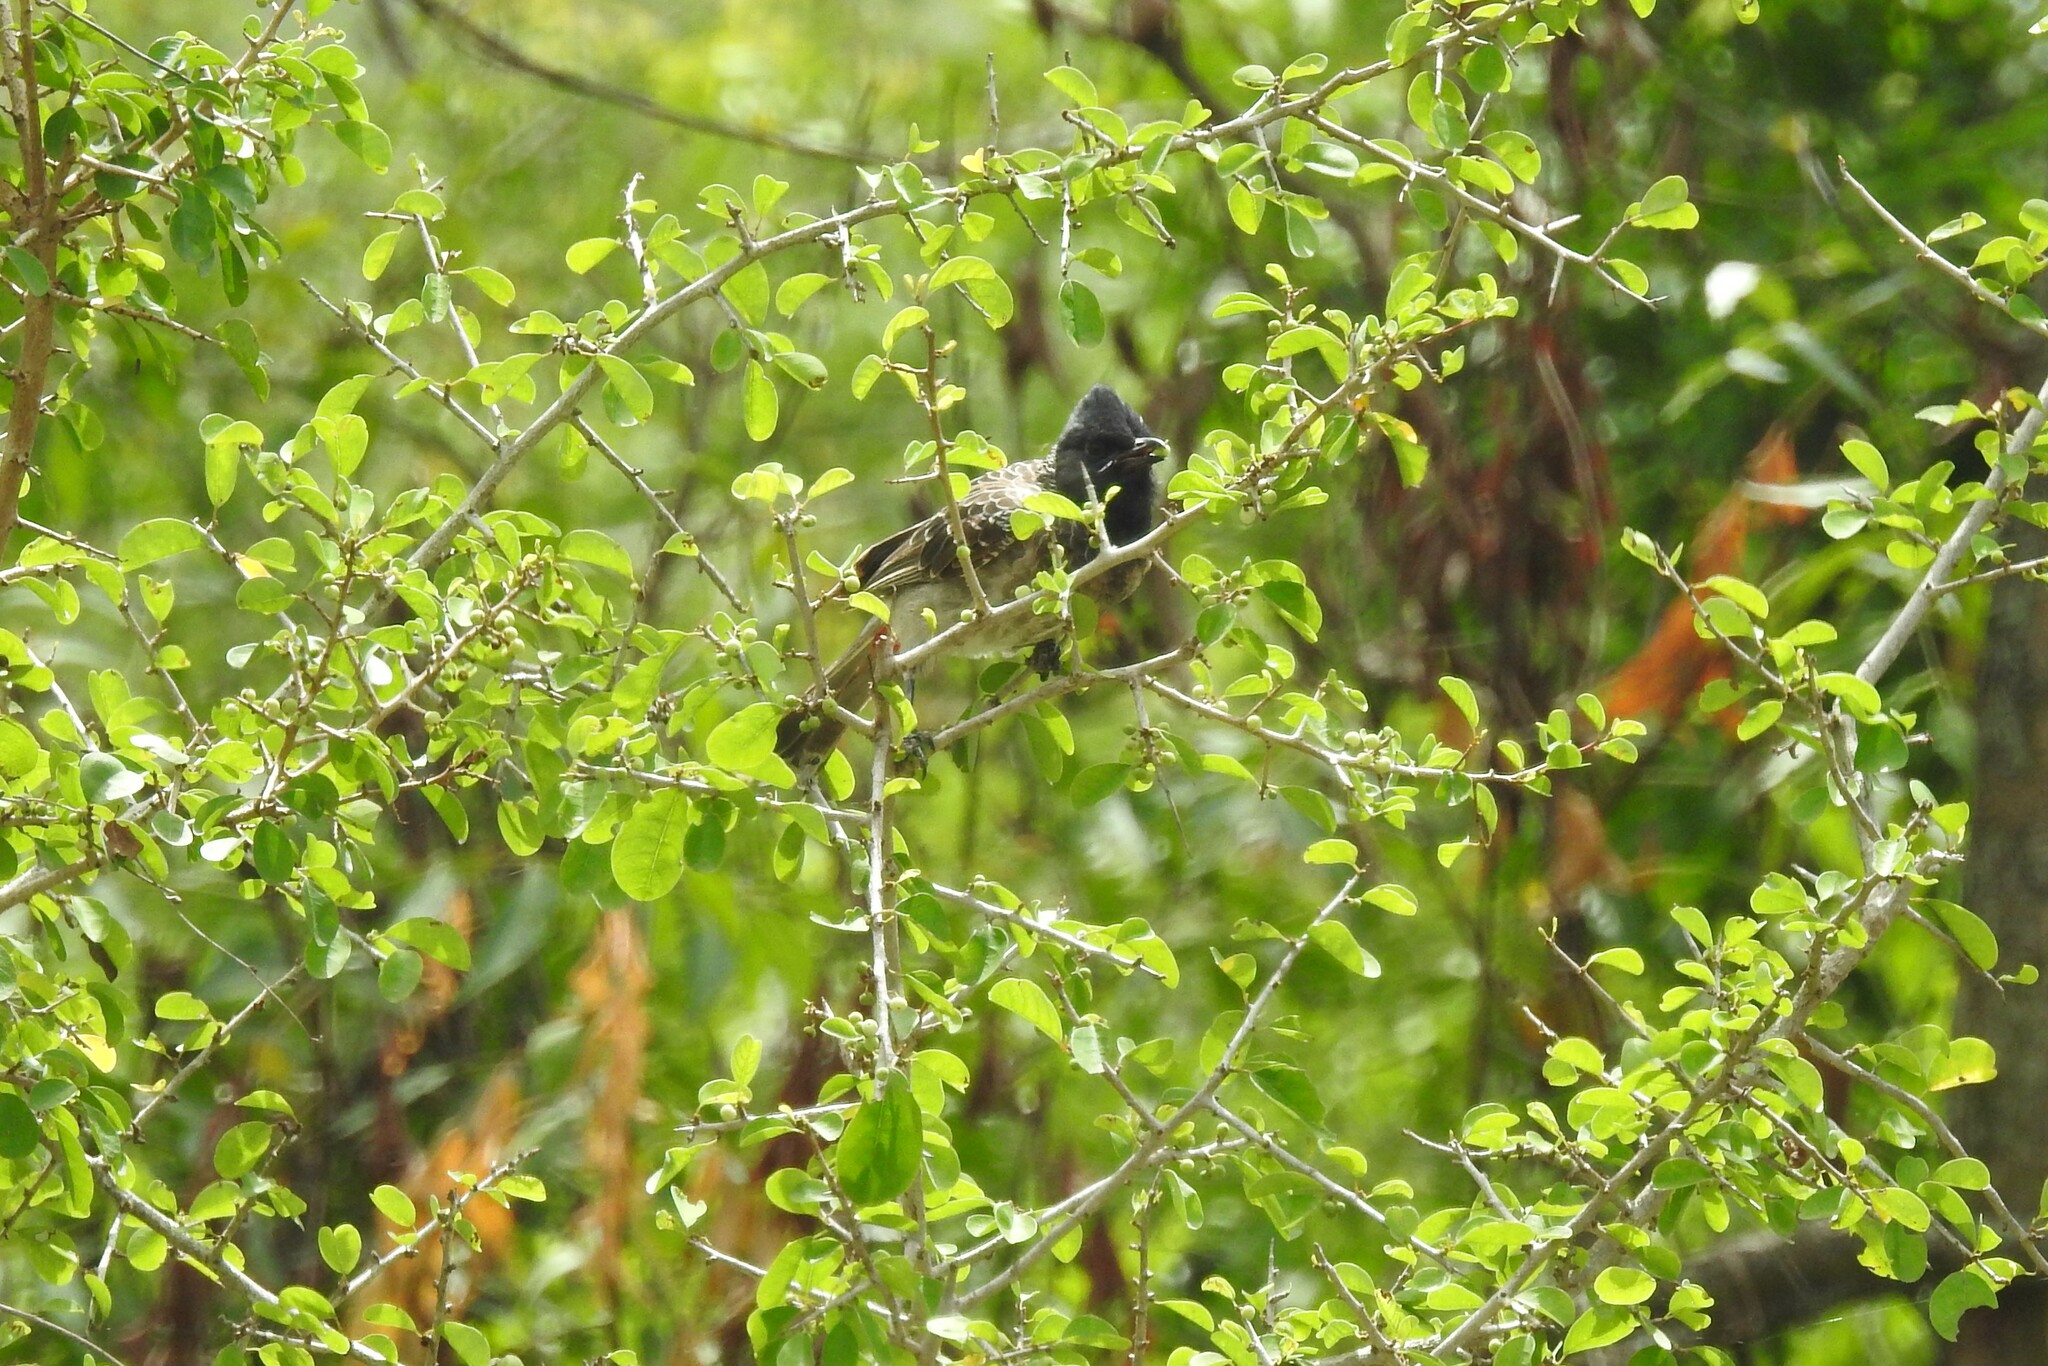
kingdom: Animalia
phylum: Chordata
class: Aves
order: Passeriformes
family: Pycnonotidae
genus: Pycnonotus
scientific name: Pycnonotus cafer
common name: Red-vented bulbul
